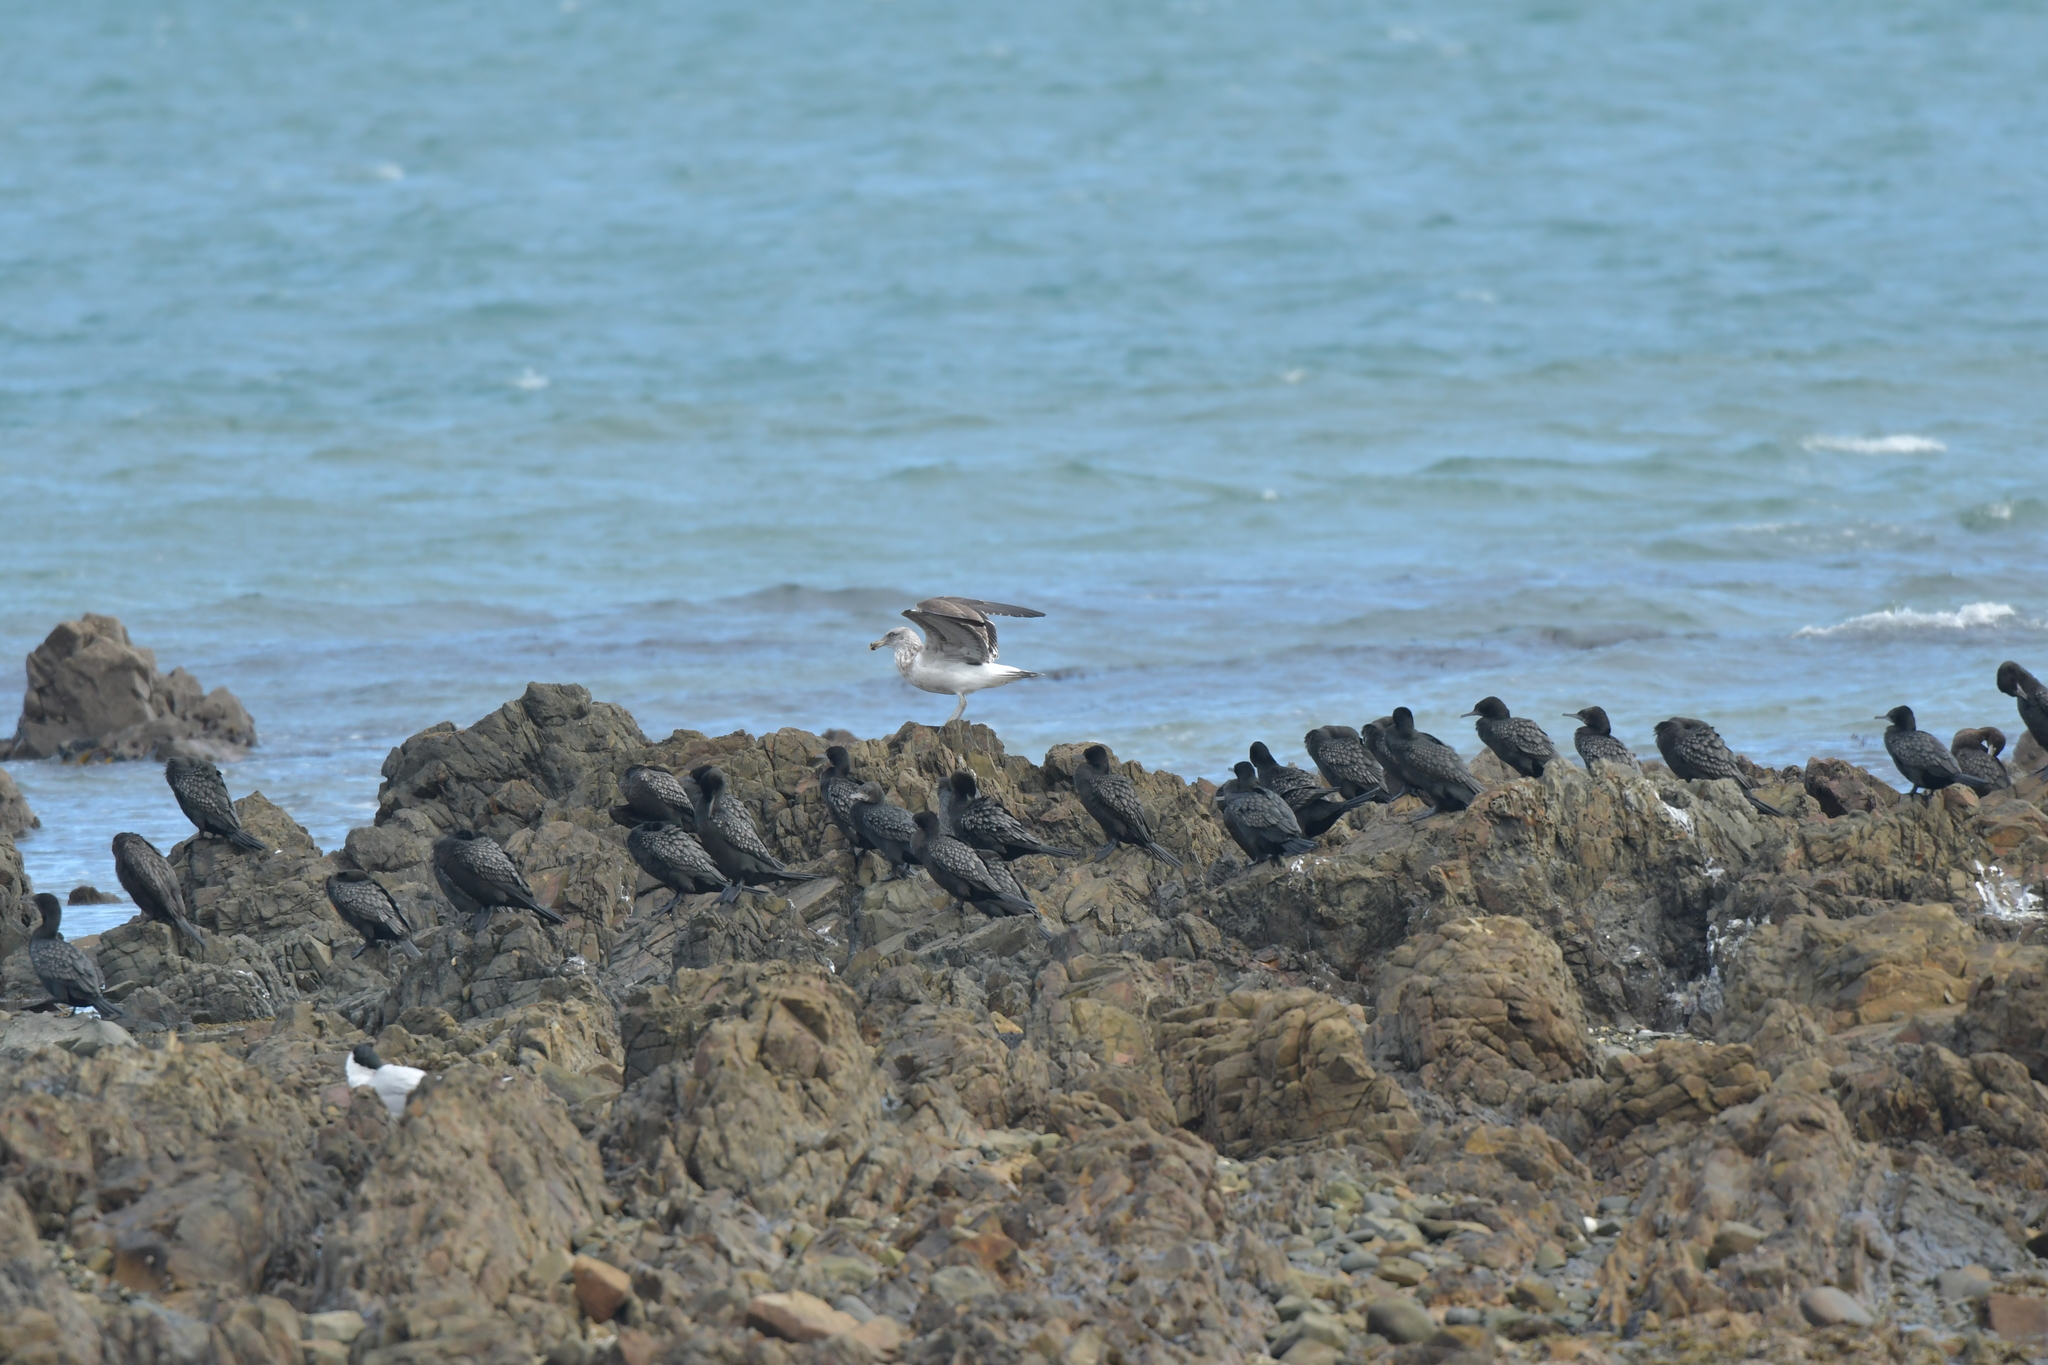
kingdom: Animalia
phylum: Chordata
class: Aves
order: Suliformes
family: Phalacrocoracidae
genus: Phalacrocorax
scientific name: Phalacrocorax sulcirostris
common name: Little black cormorant
